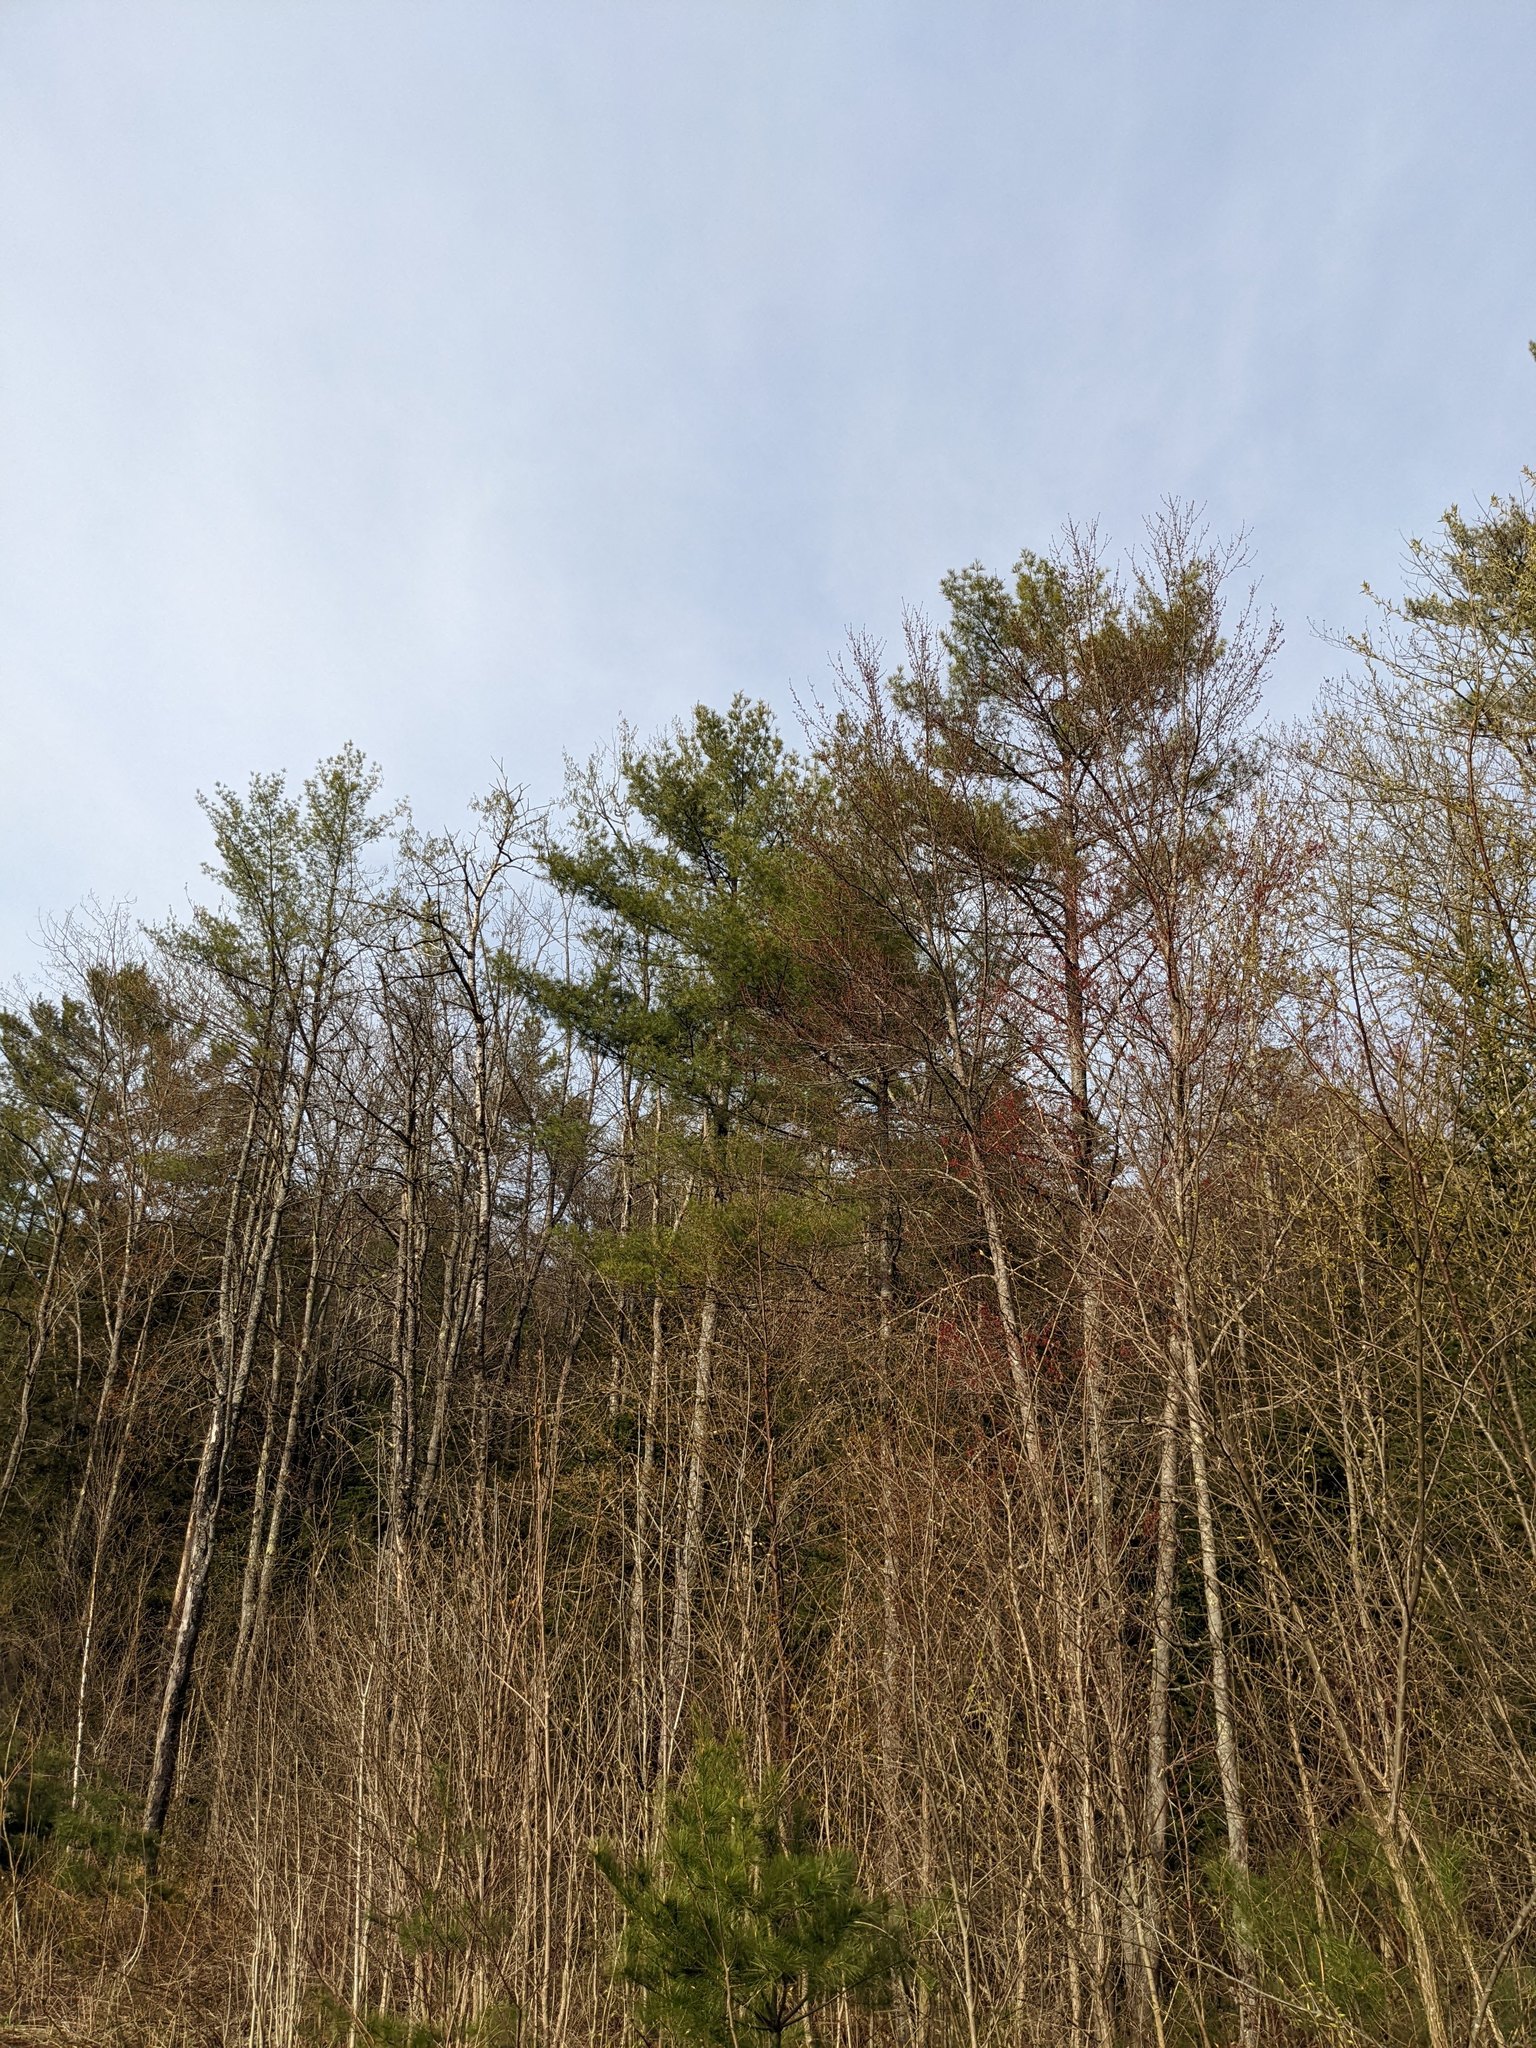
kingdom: Plantae
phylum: Tracheophyta
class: Pinopsida
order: Pinales
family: Pinaceae
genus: Pinus
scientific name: Pinus strobus
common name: Weymouth pine
